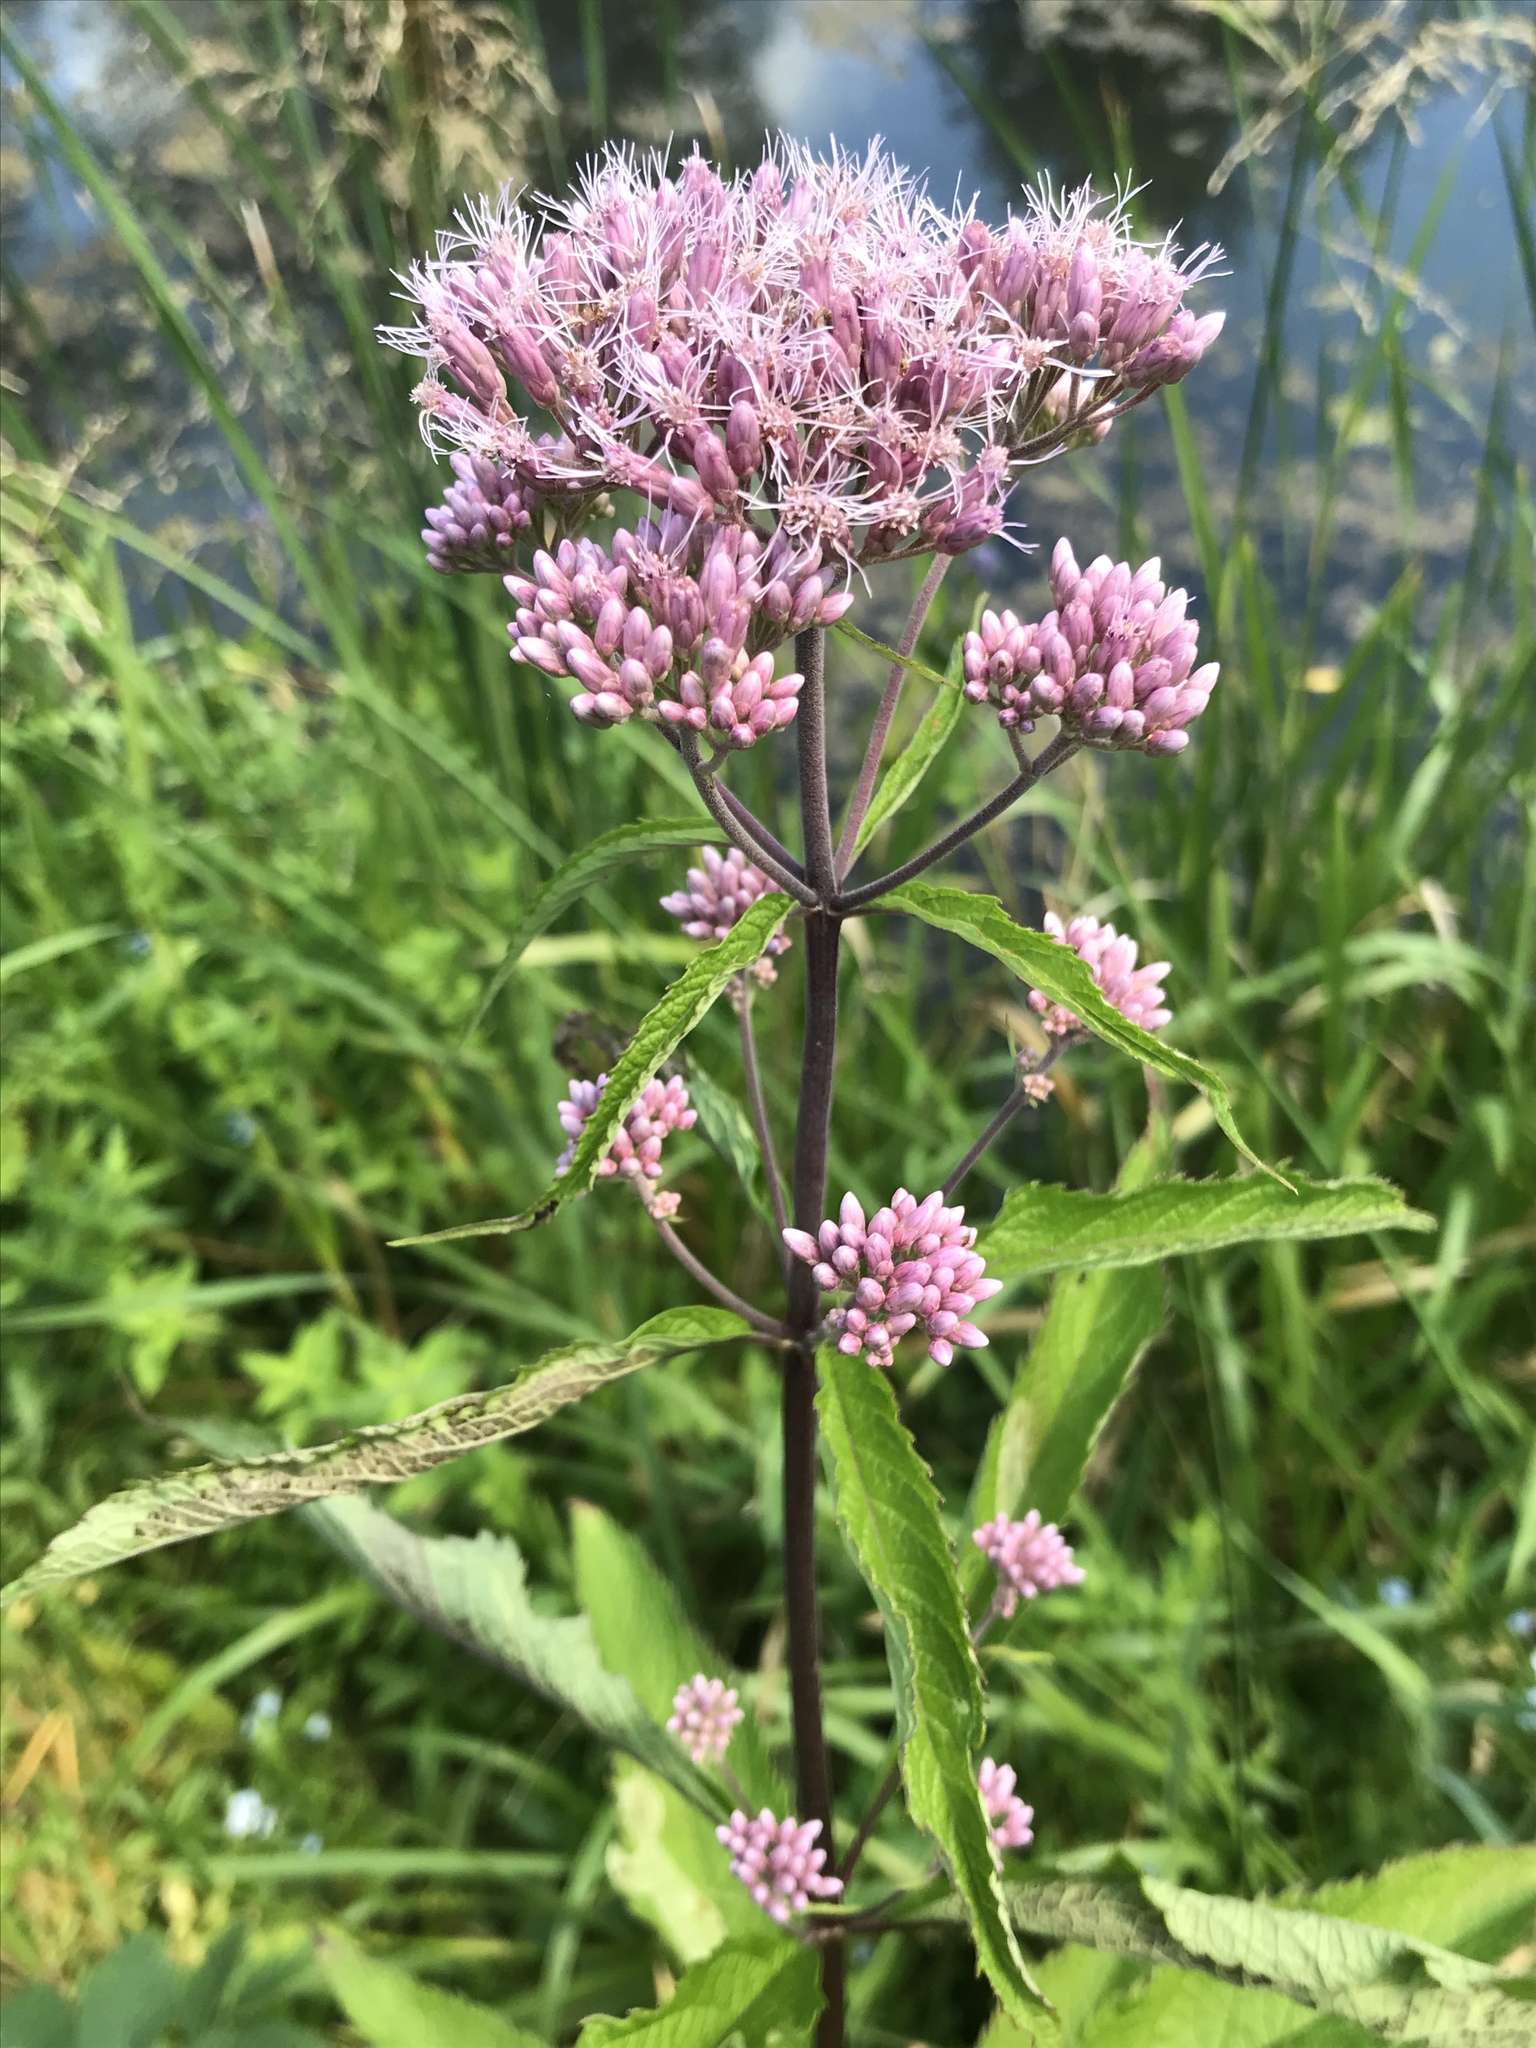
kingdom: Plantae
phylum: Tracheophyta
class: Magnoliopsida
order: Asterales
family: Asteraceae
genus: Eutrochium
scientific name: Eutrochium maculatum
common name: Spotted joe pye weed
